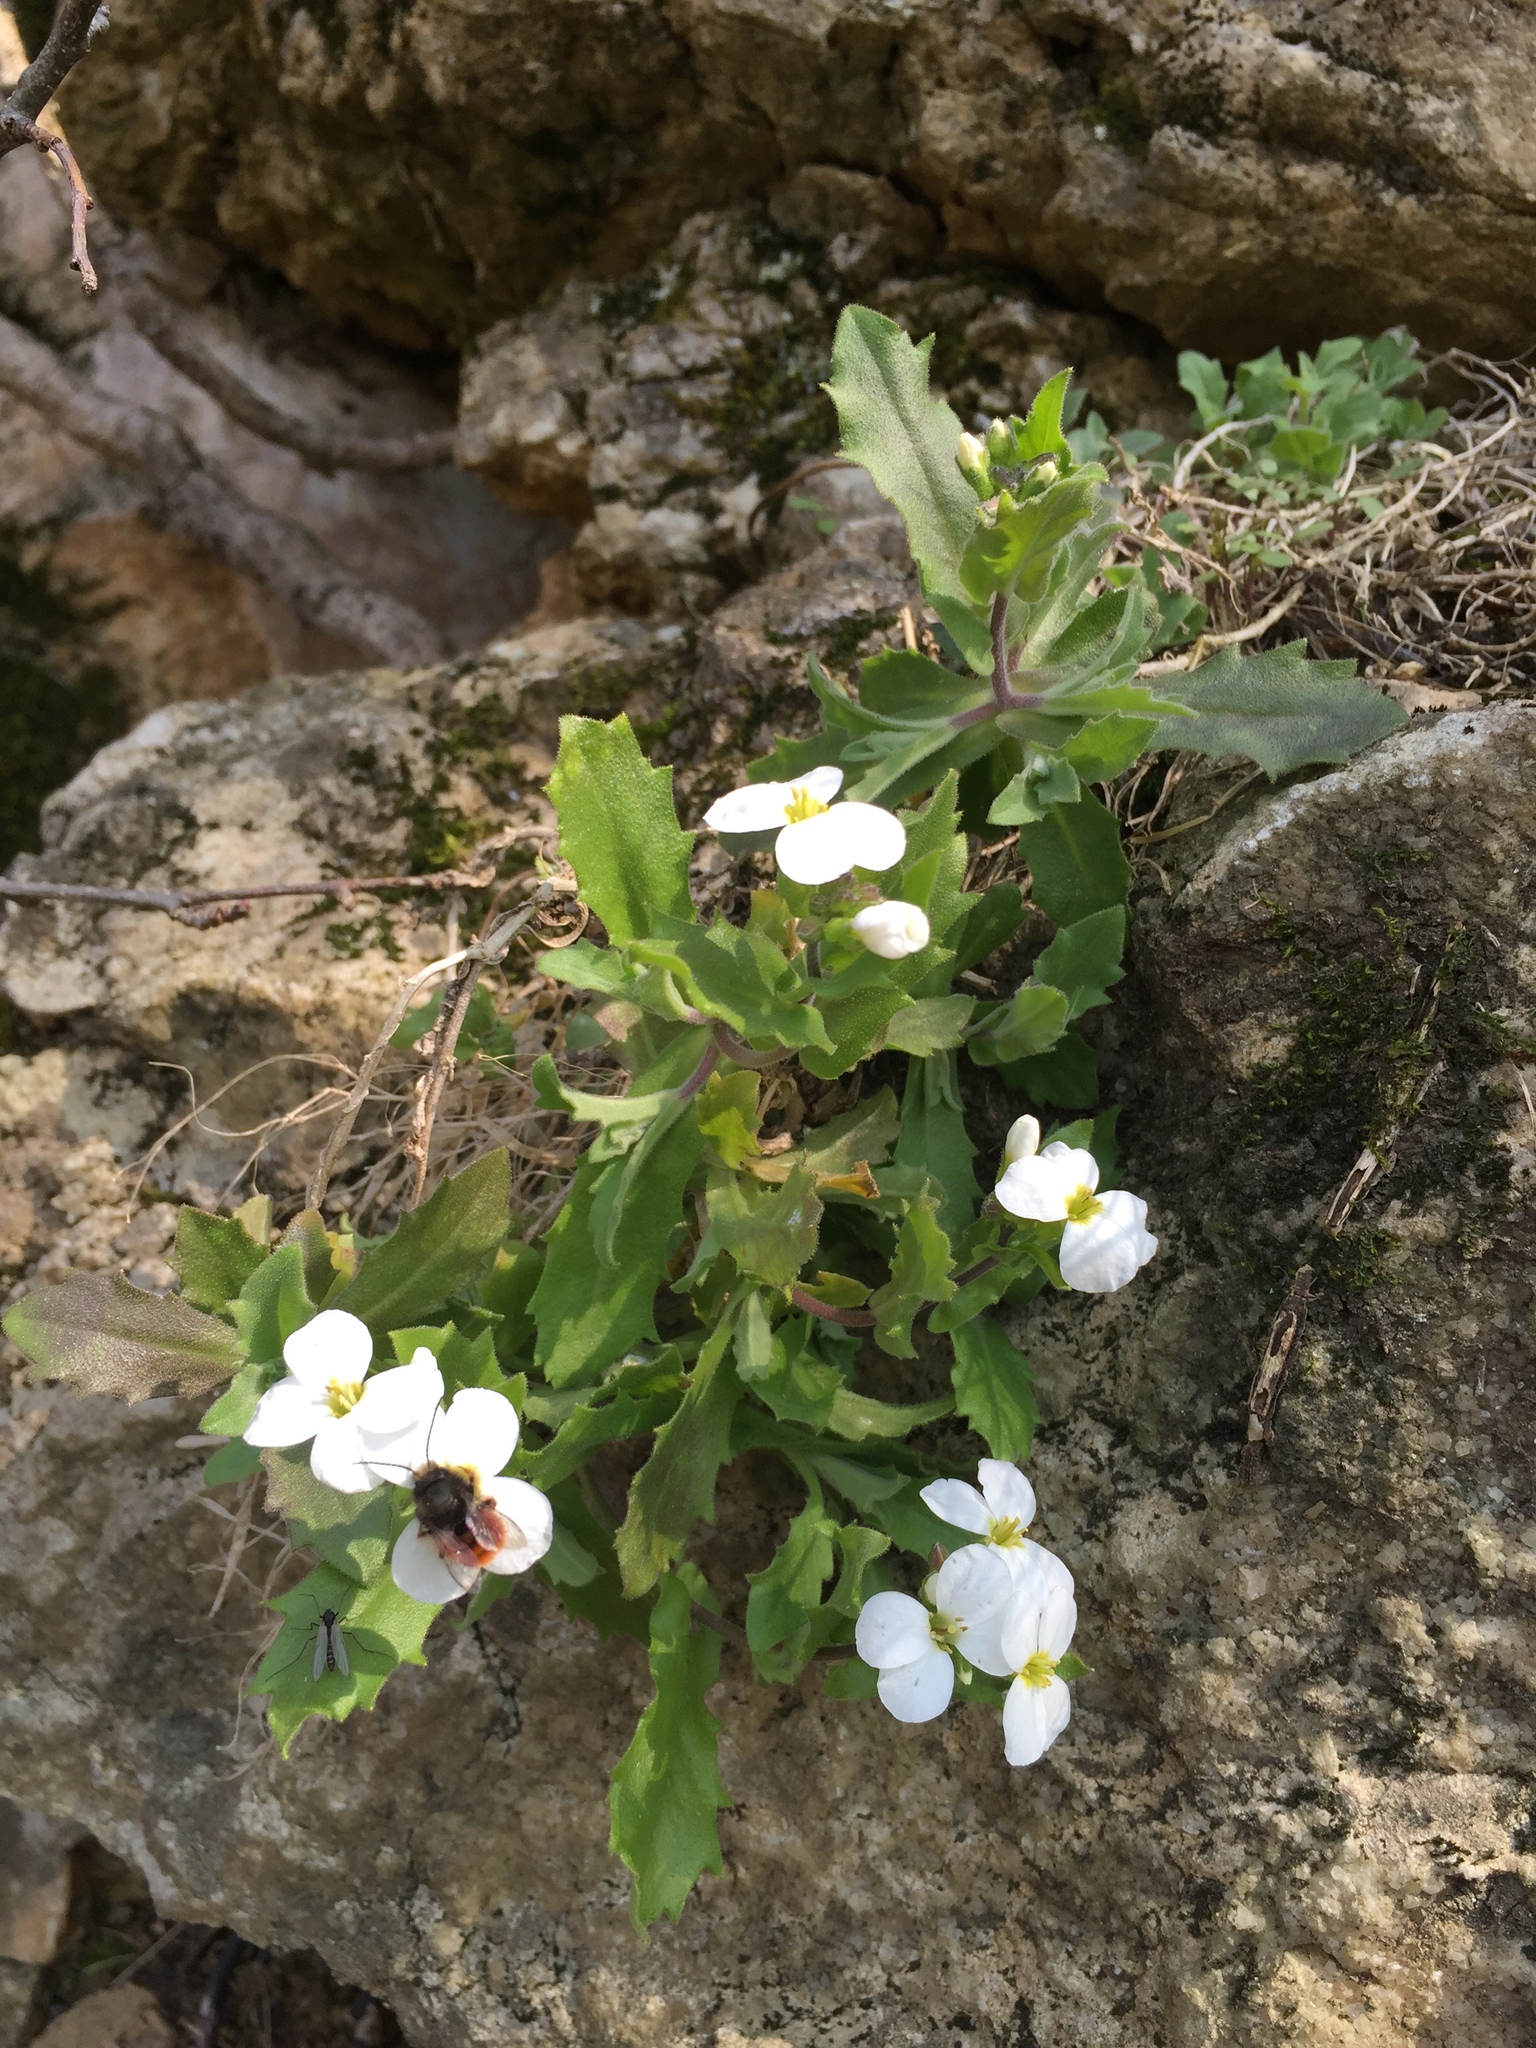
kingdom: Animalia
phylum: Arthropoda
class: Insecta
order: Hymenoptera
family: Megachilidae
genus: Osmia
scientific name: Osmia cornuta
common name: Mason bee
